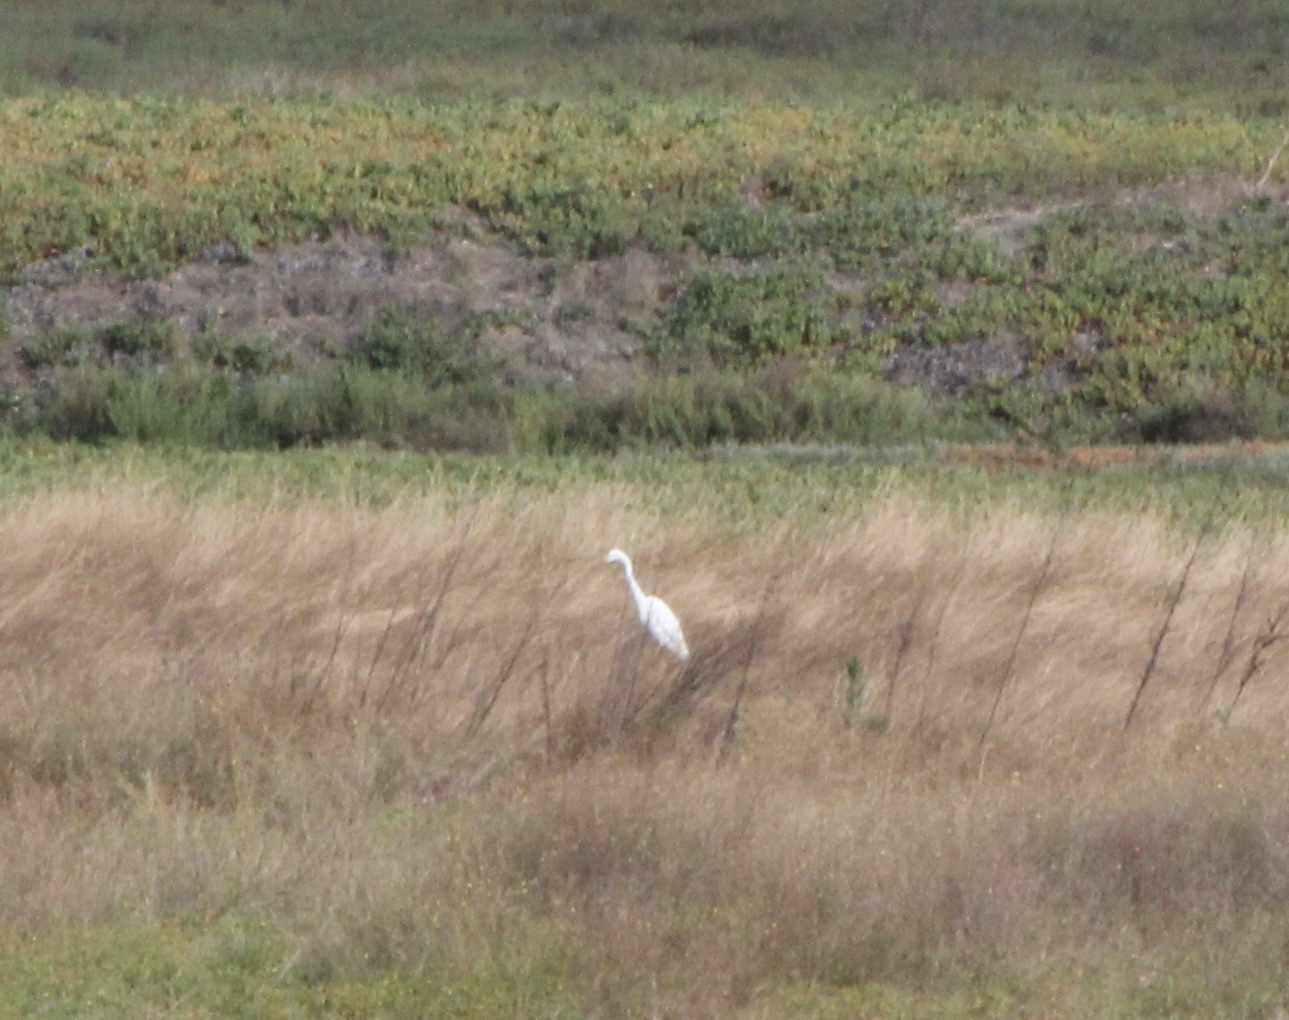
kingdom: Animalia
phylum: Chordata
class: Aves
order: Pelecaniformes
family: Ardeidae
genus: Ardea
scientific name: Ardea alba
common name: Great egret
